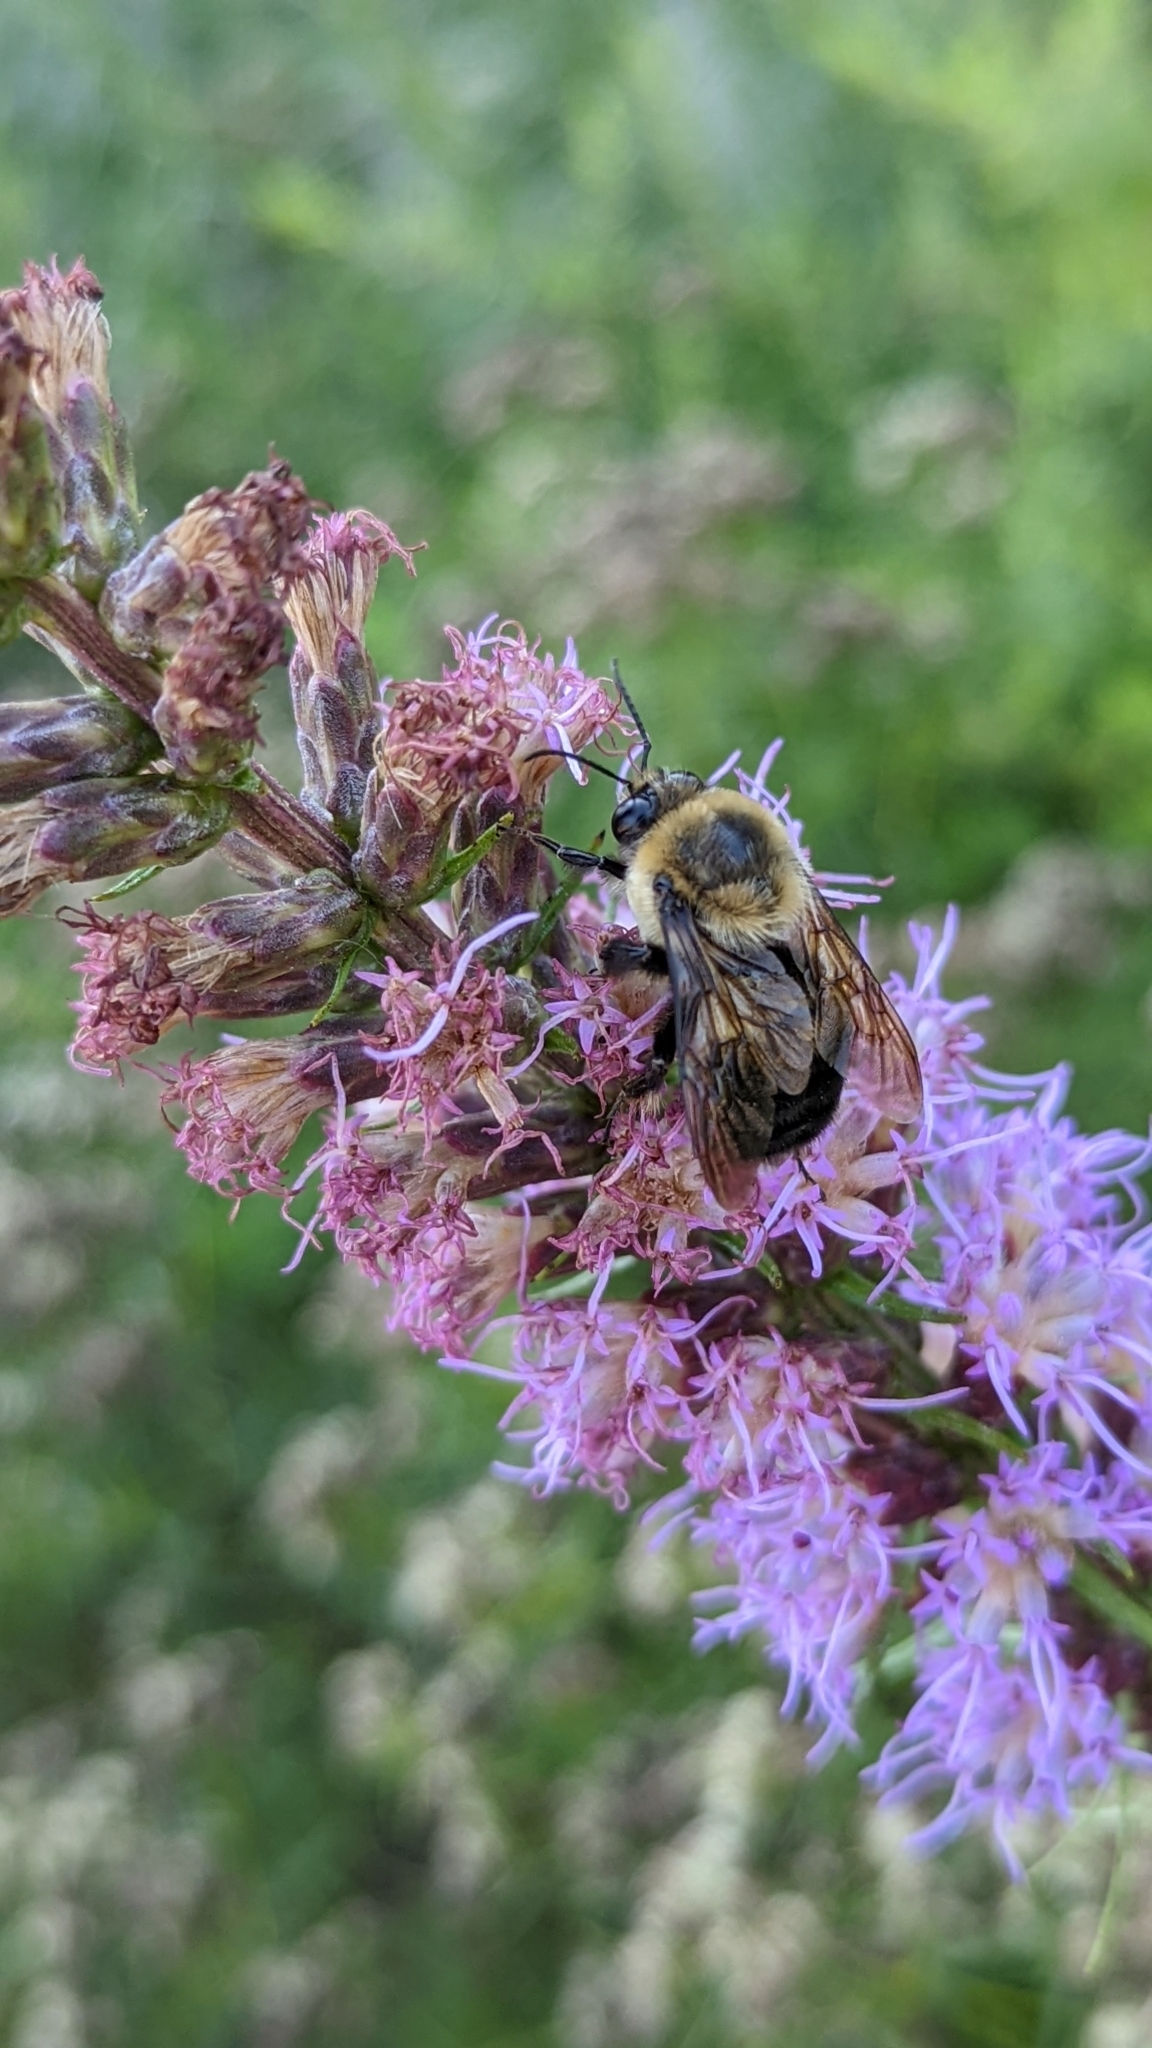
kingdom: Animalia
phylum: Arthropoda
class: Insecta
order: Hymenoptera
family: Apidae
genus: Bombus
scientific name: Bombus griseocollis
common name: Brown-belted bumble bee
